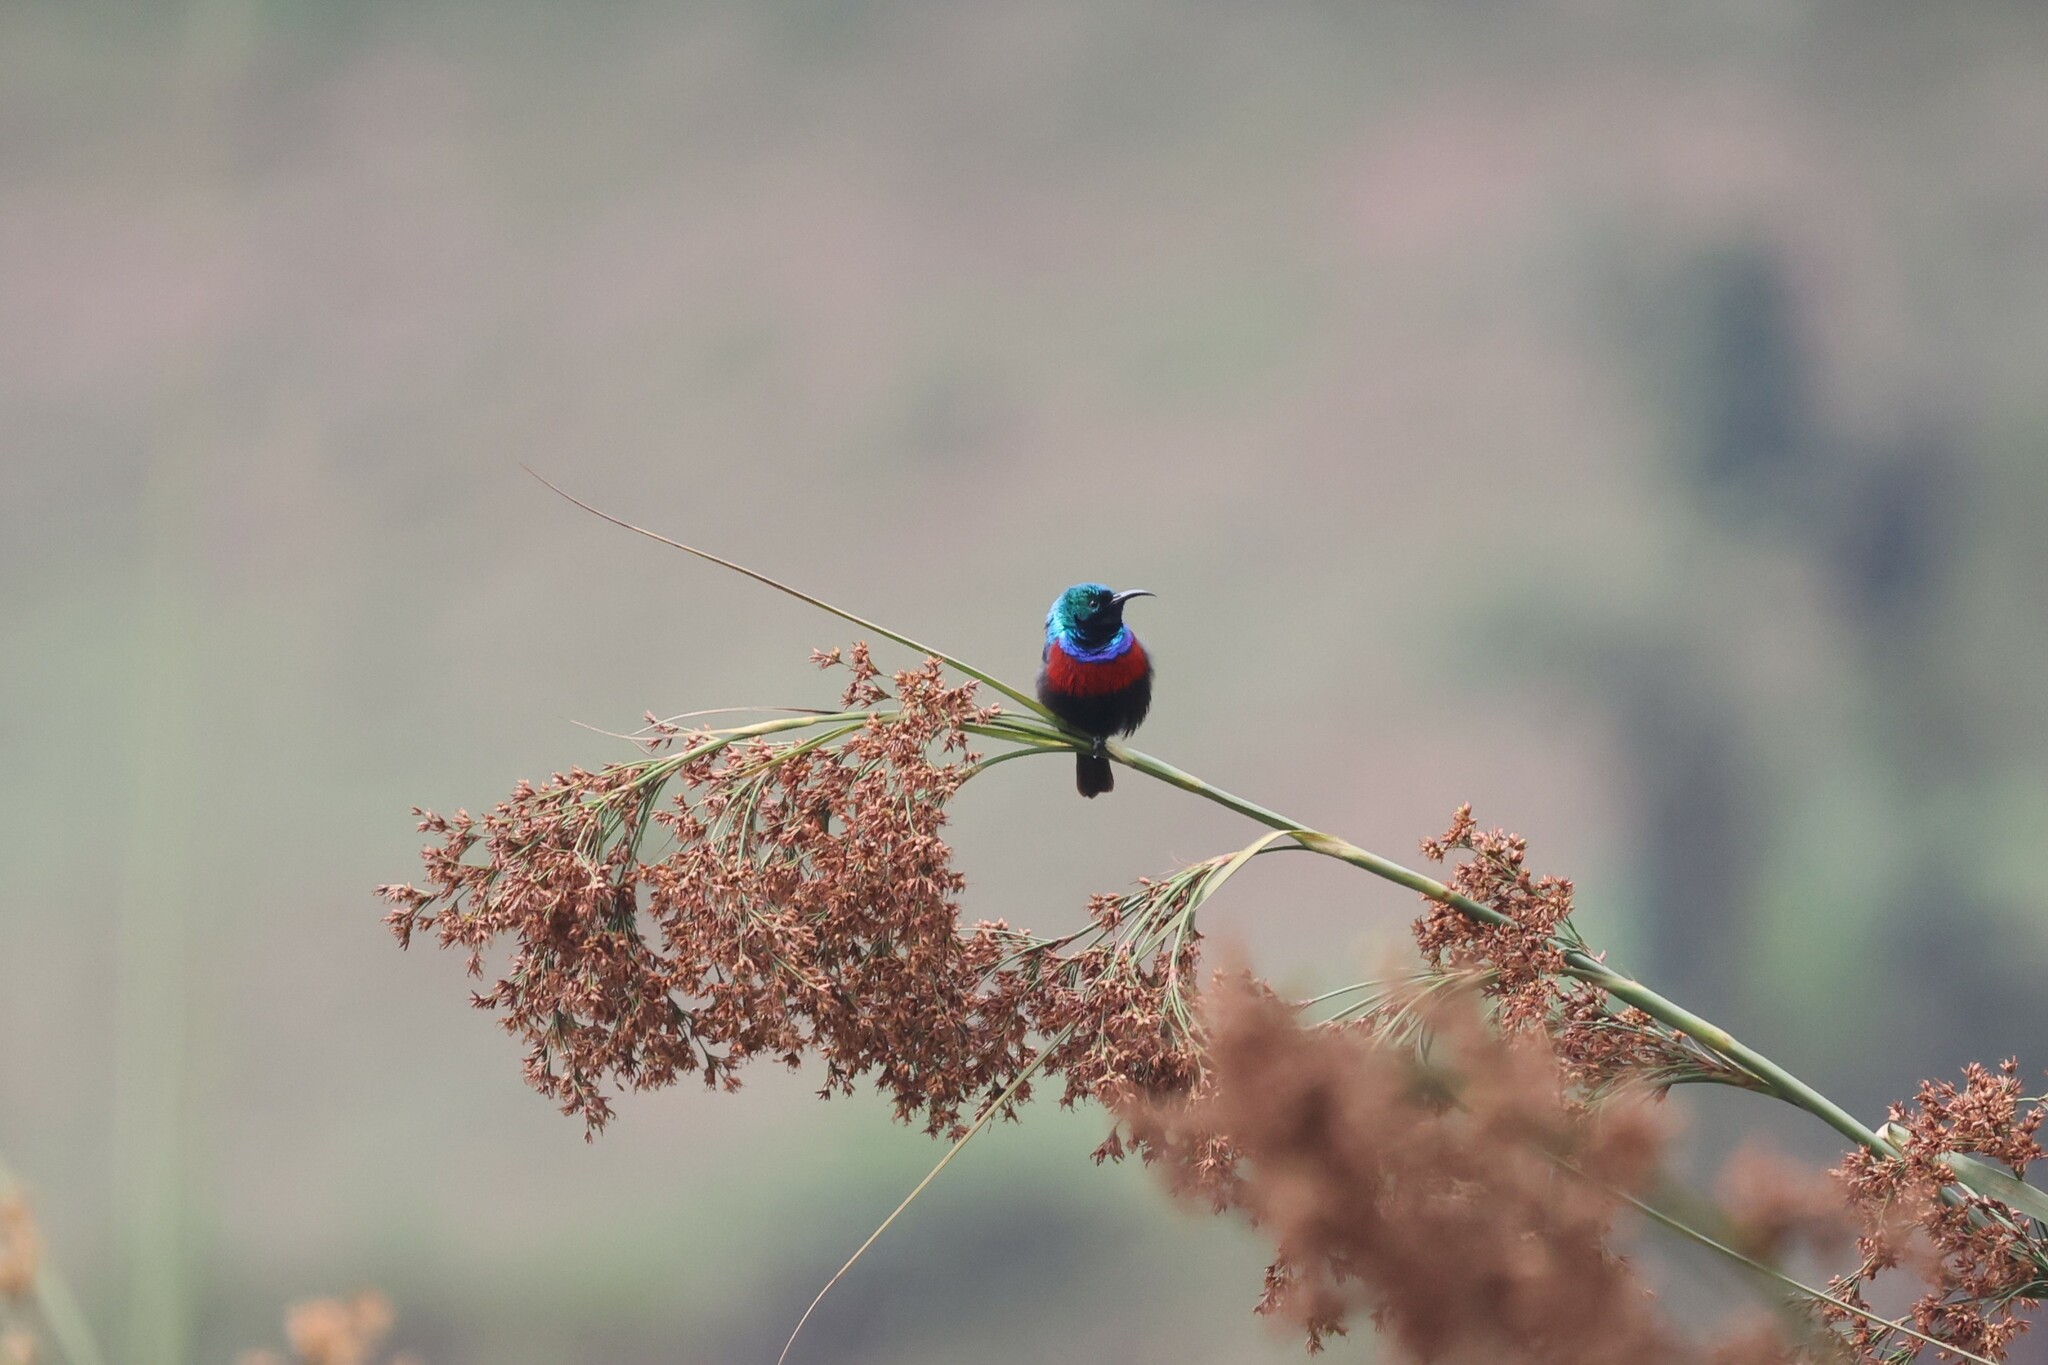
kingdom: Animalia
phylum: Chordata
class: Aves
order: Passeriformes
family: Nectariniidae
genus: Cinnyris
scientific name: Cinnyris erythrocercus
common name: Red-chested sunbird
